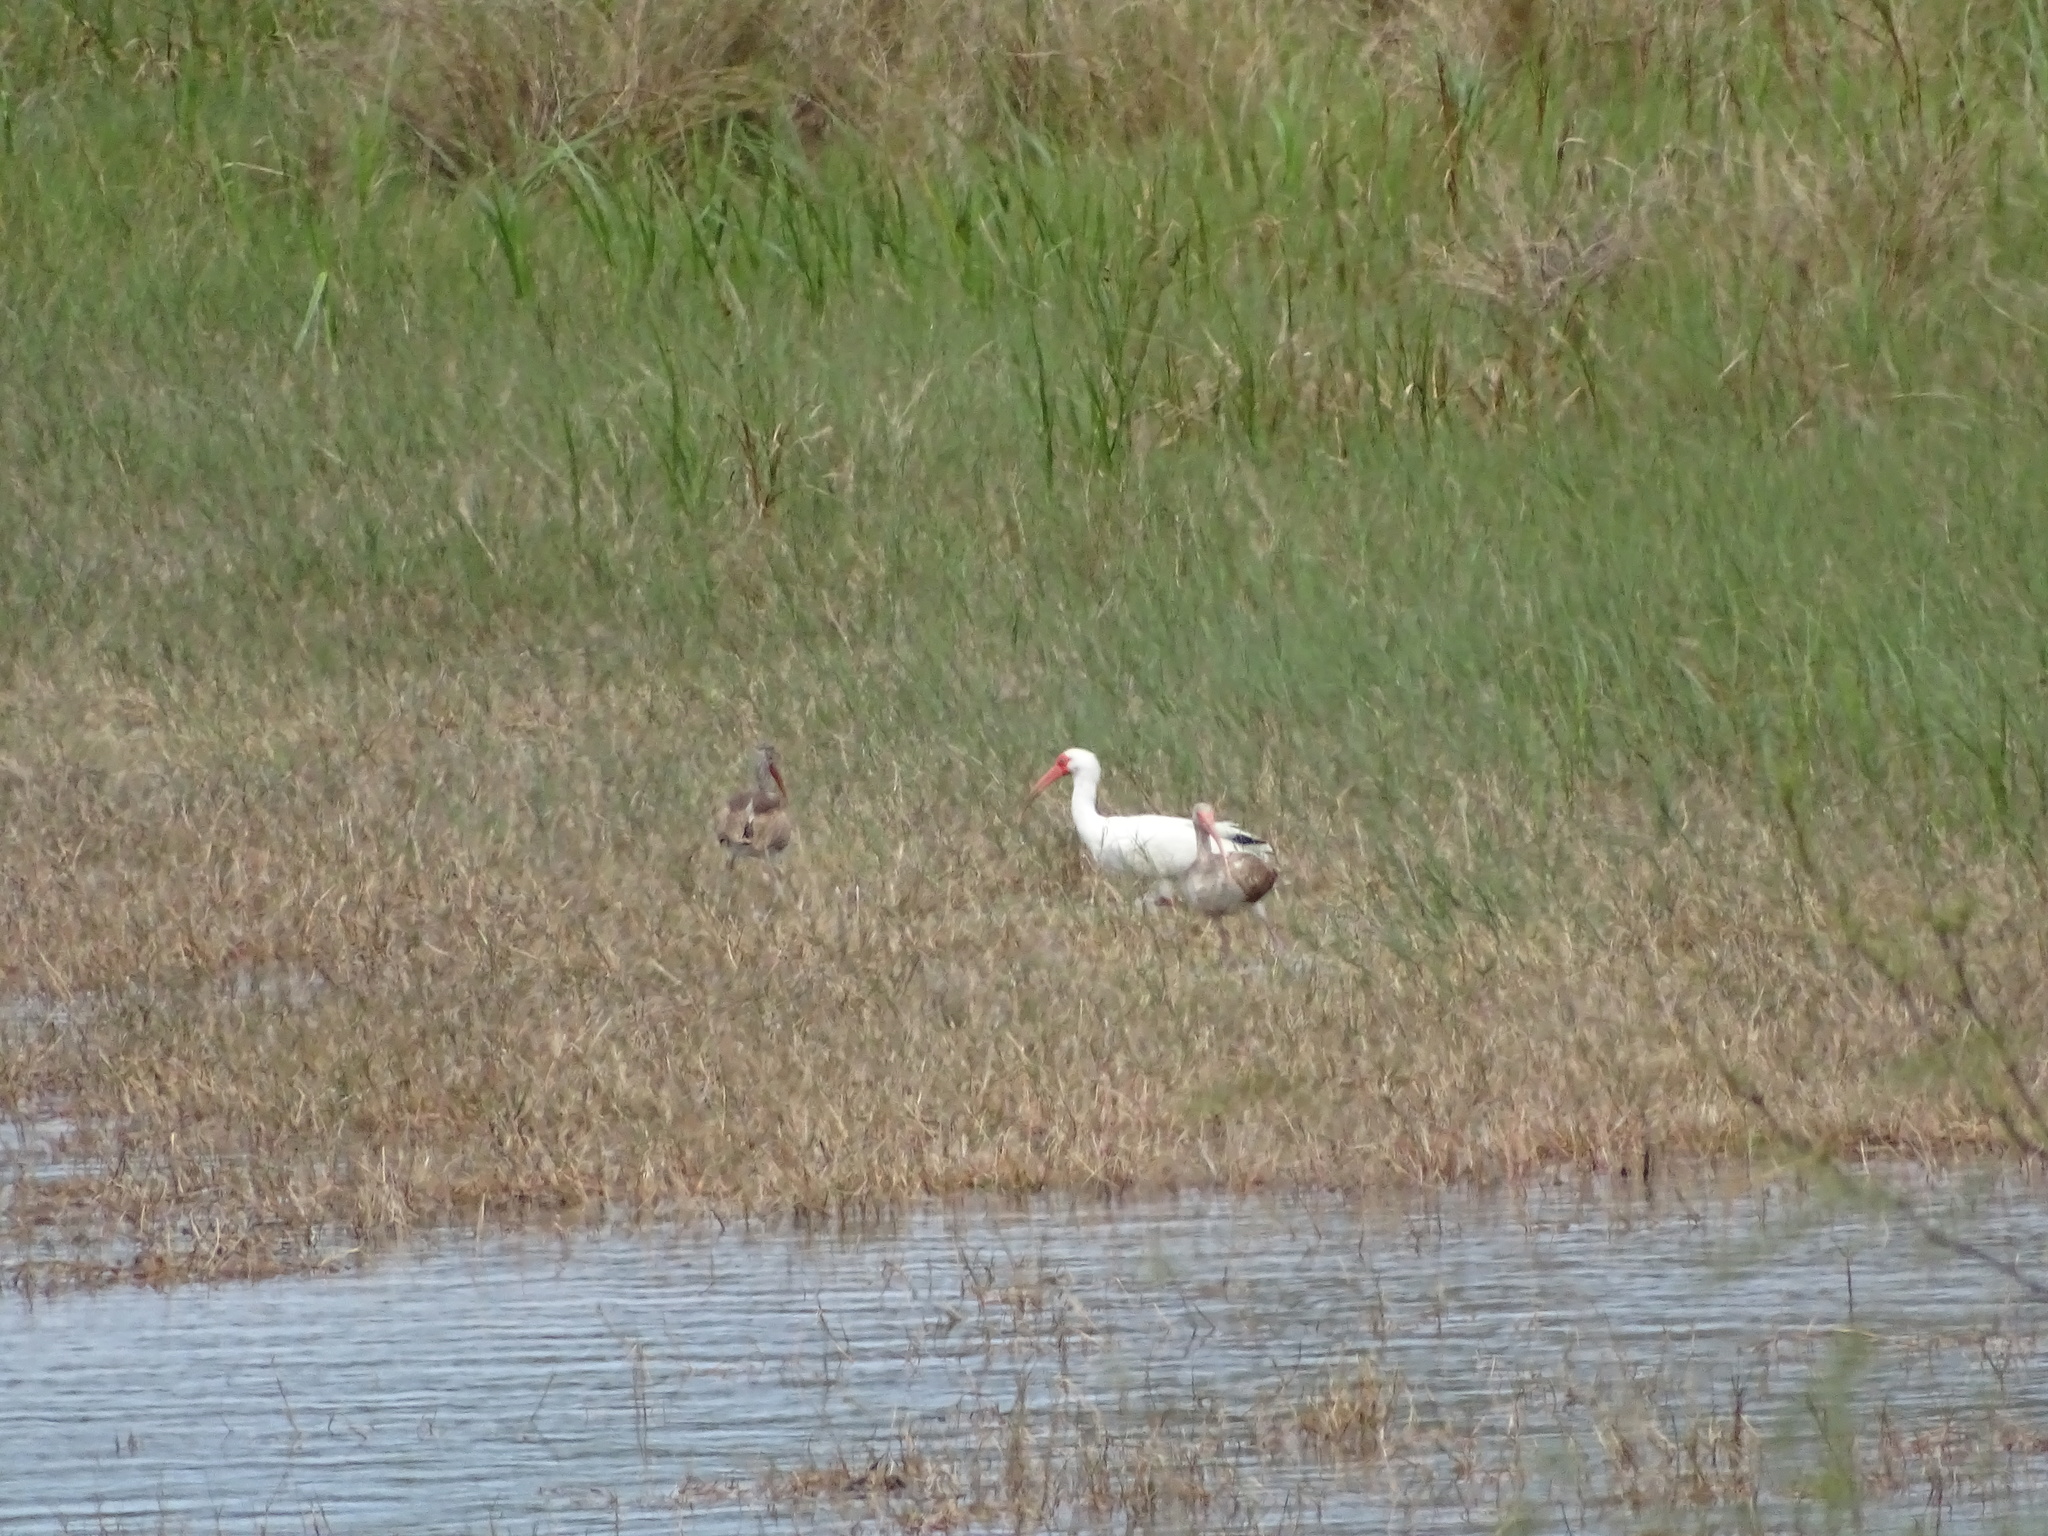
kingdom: Animalia
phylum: Chordata
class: Aves
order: Pelecaniformes
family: Threskiornithidae
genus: Eudocimus
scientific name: Eudocimus albus
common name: White ibis
